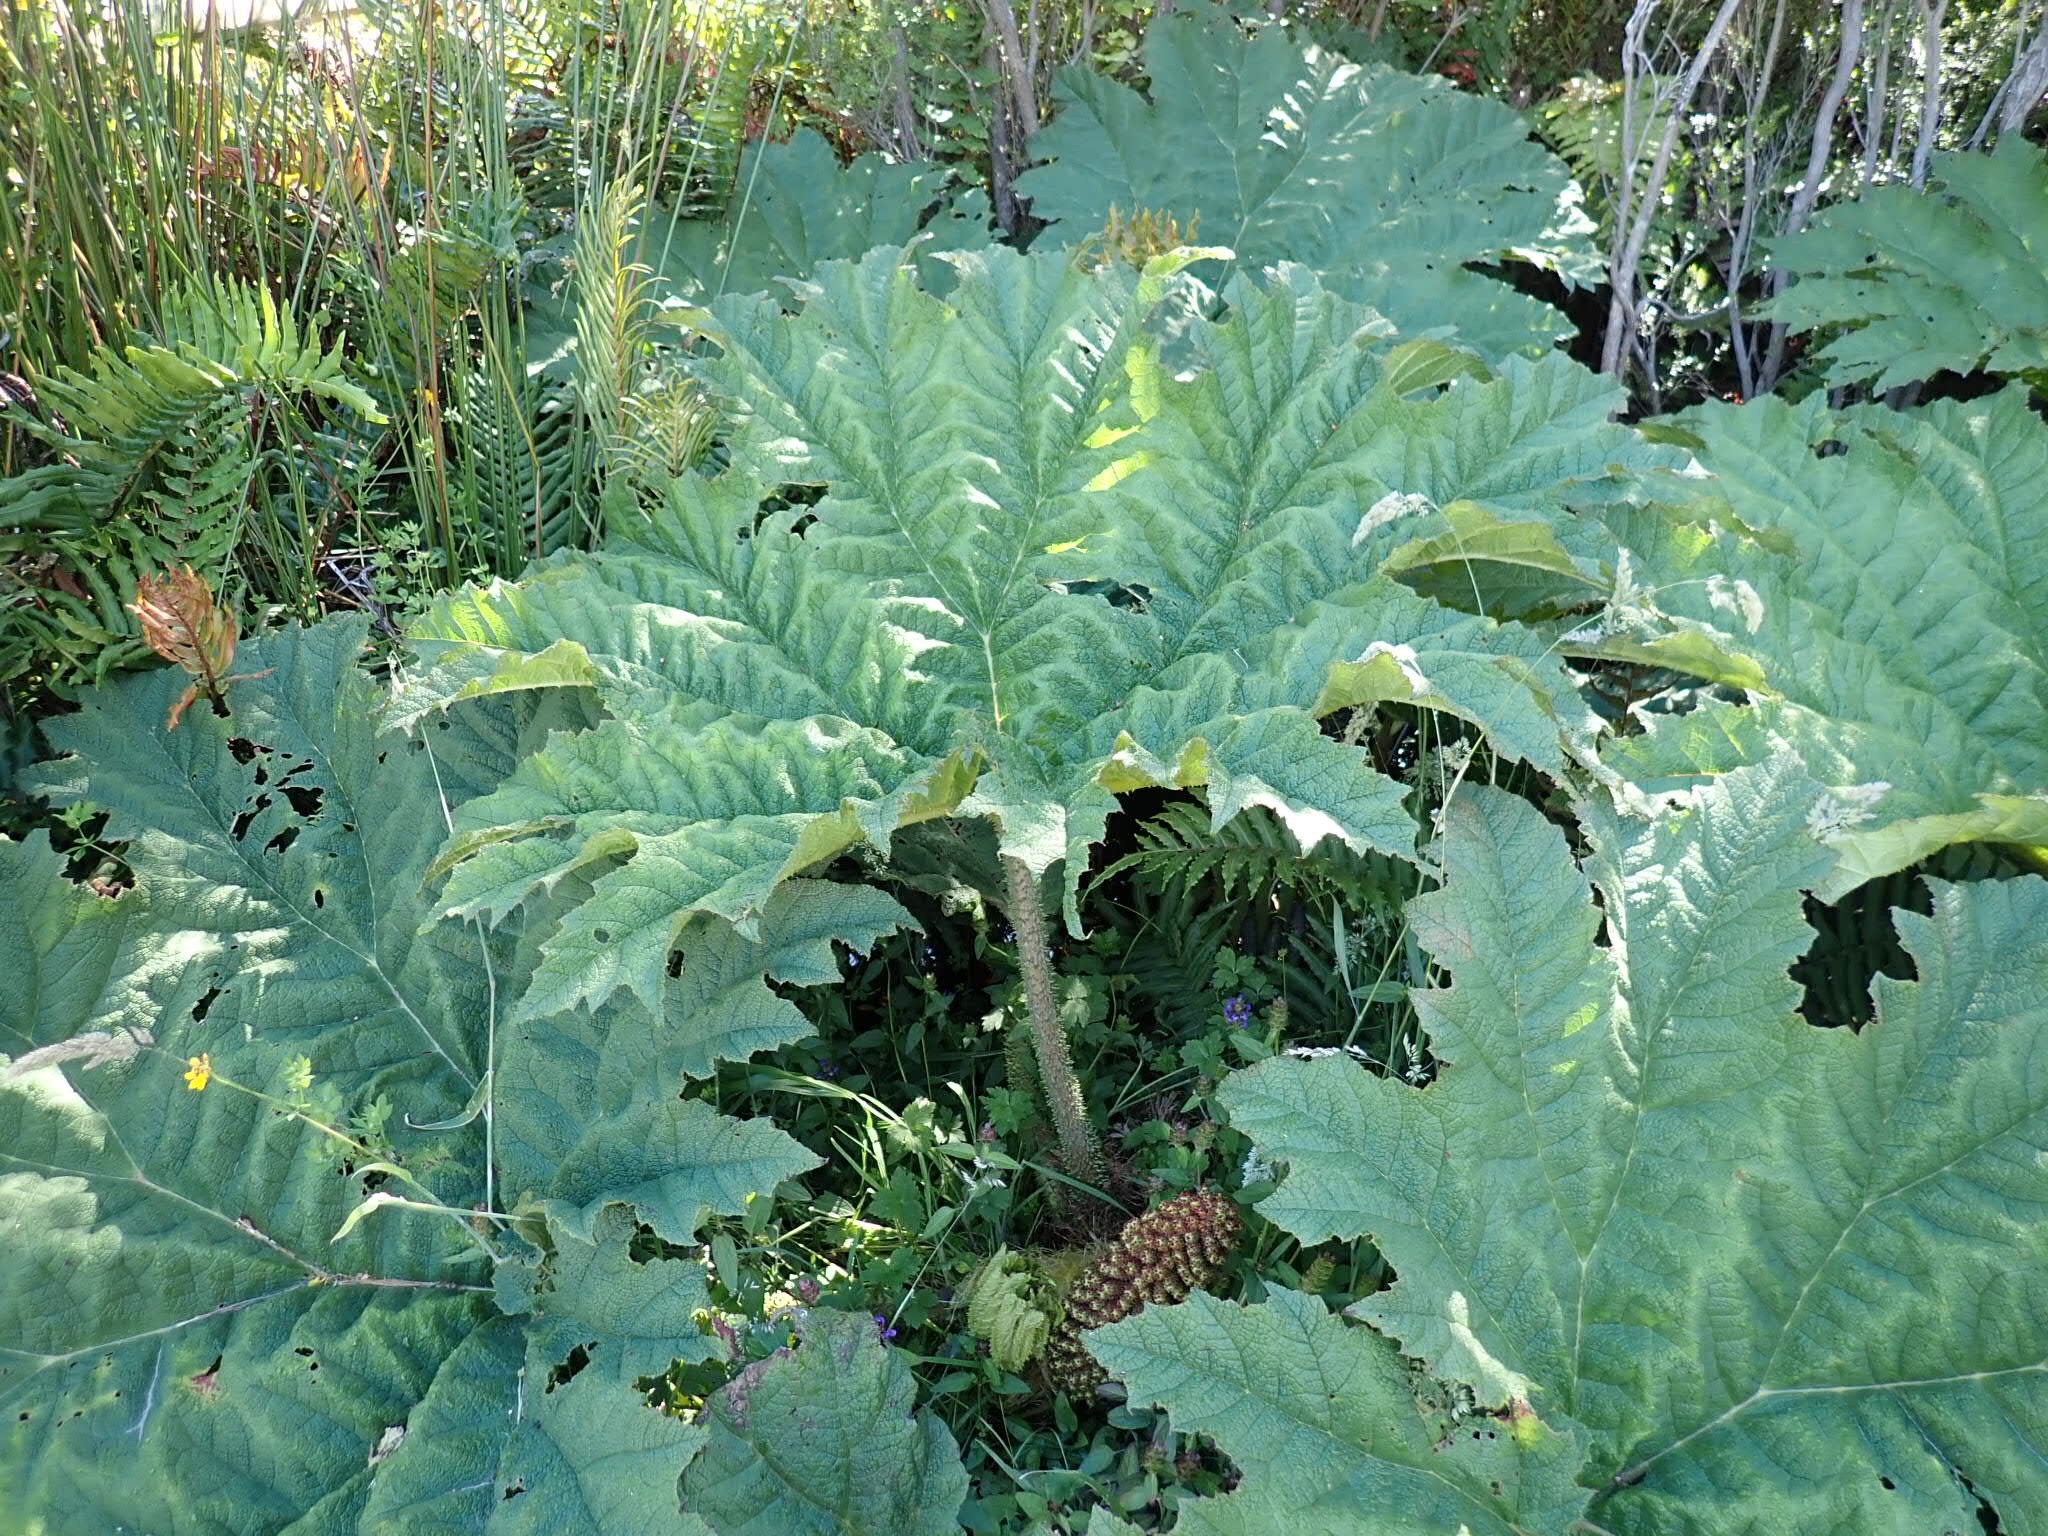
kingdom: Plantae
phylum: Tracheophyta
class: Magnoliopsida
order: Gunnerales
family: Gunneraceae
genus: Gunnera
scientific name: Gunnera tinctoria
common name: Giant-rhubarb
